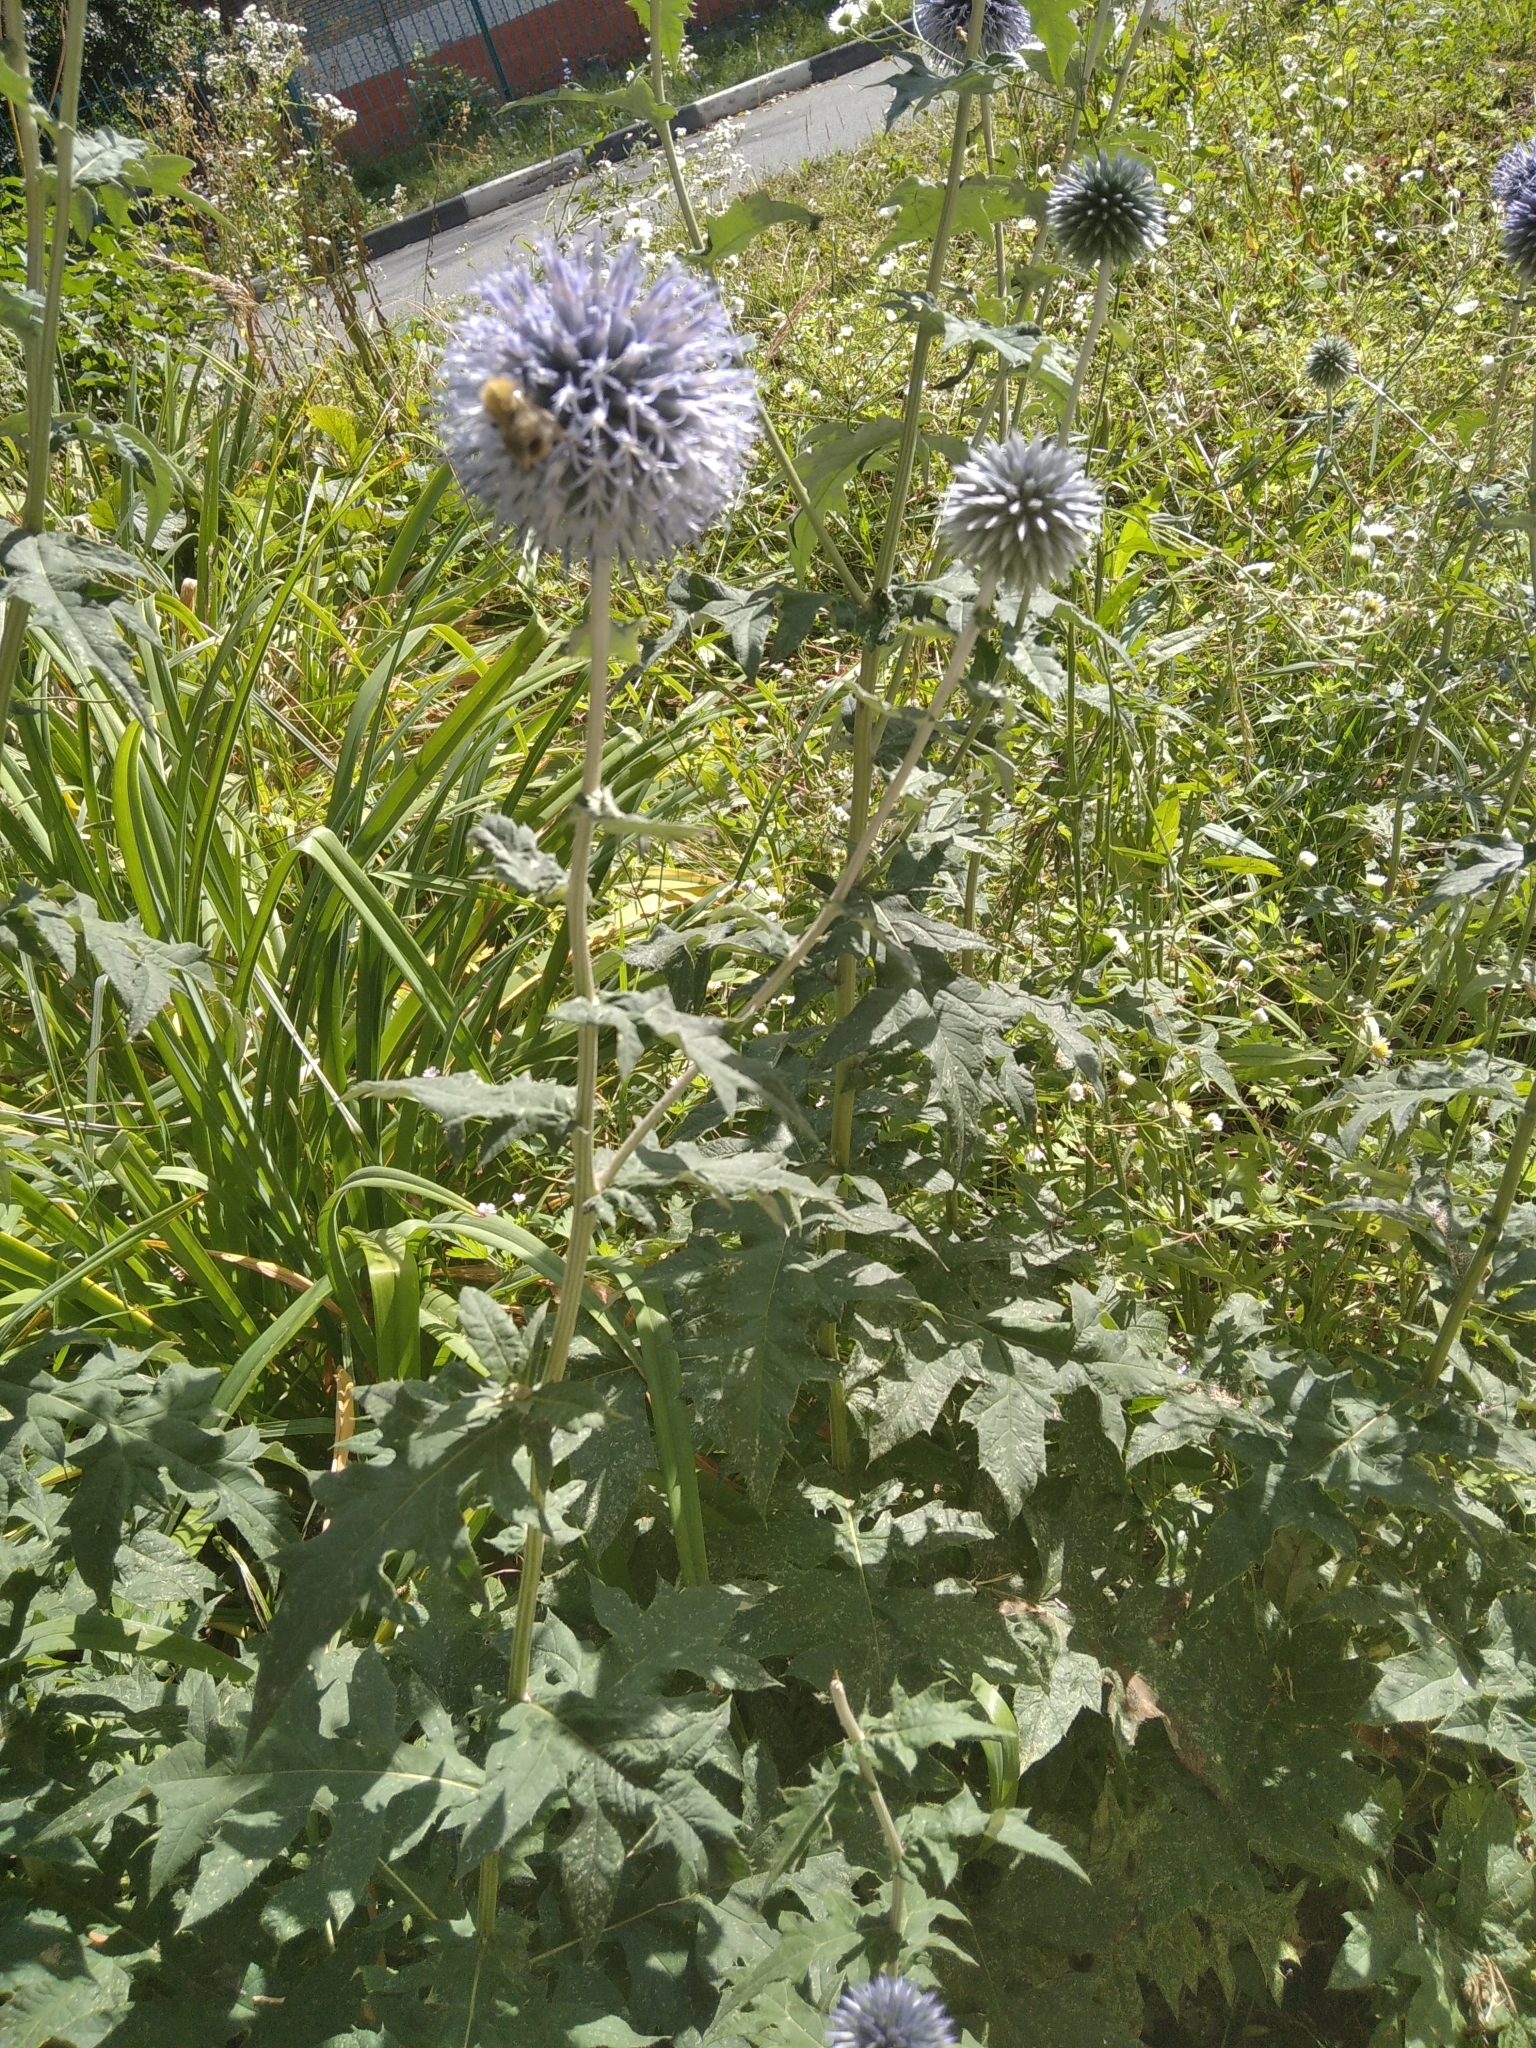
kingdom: Plantae
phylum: Tracheophyta
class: Magnoliopsida
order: Asterales
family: Asteraceae
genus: Echinops
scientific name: Echinops sphaerocephalus
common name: Glandular globe-thistle
